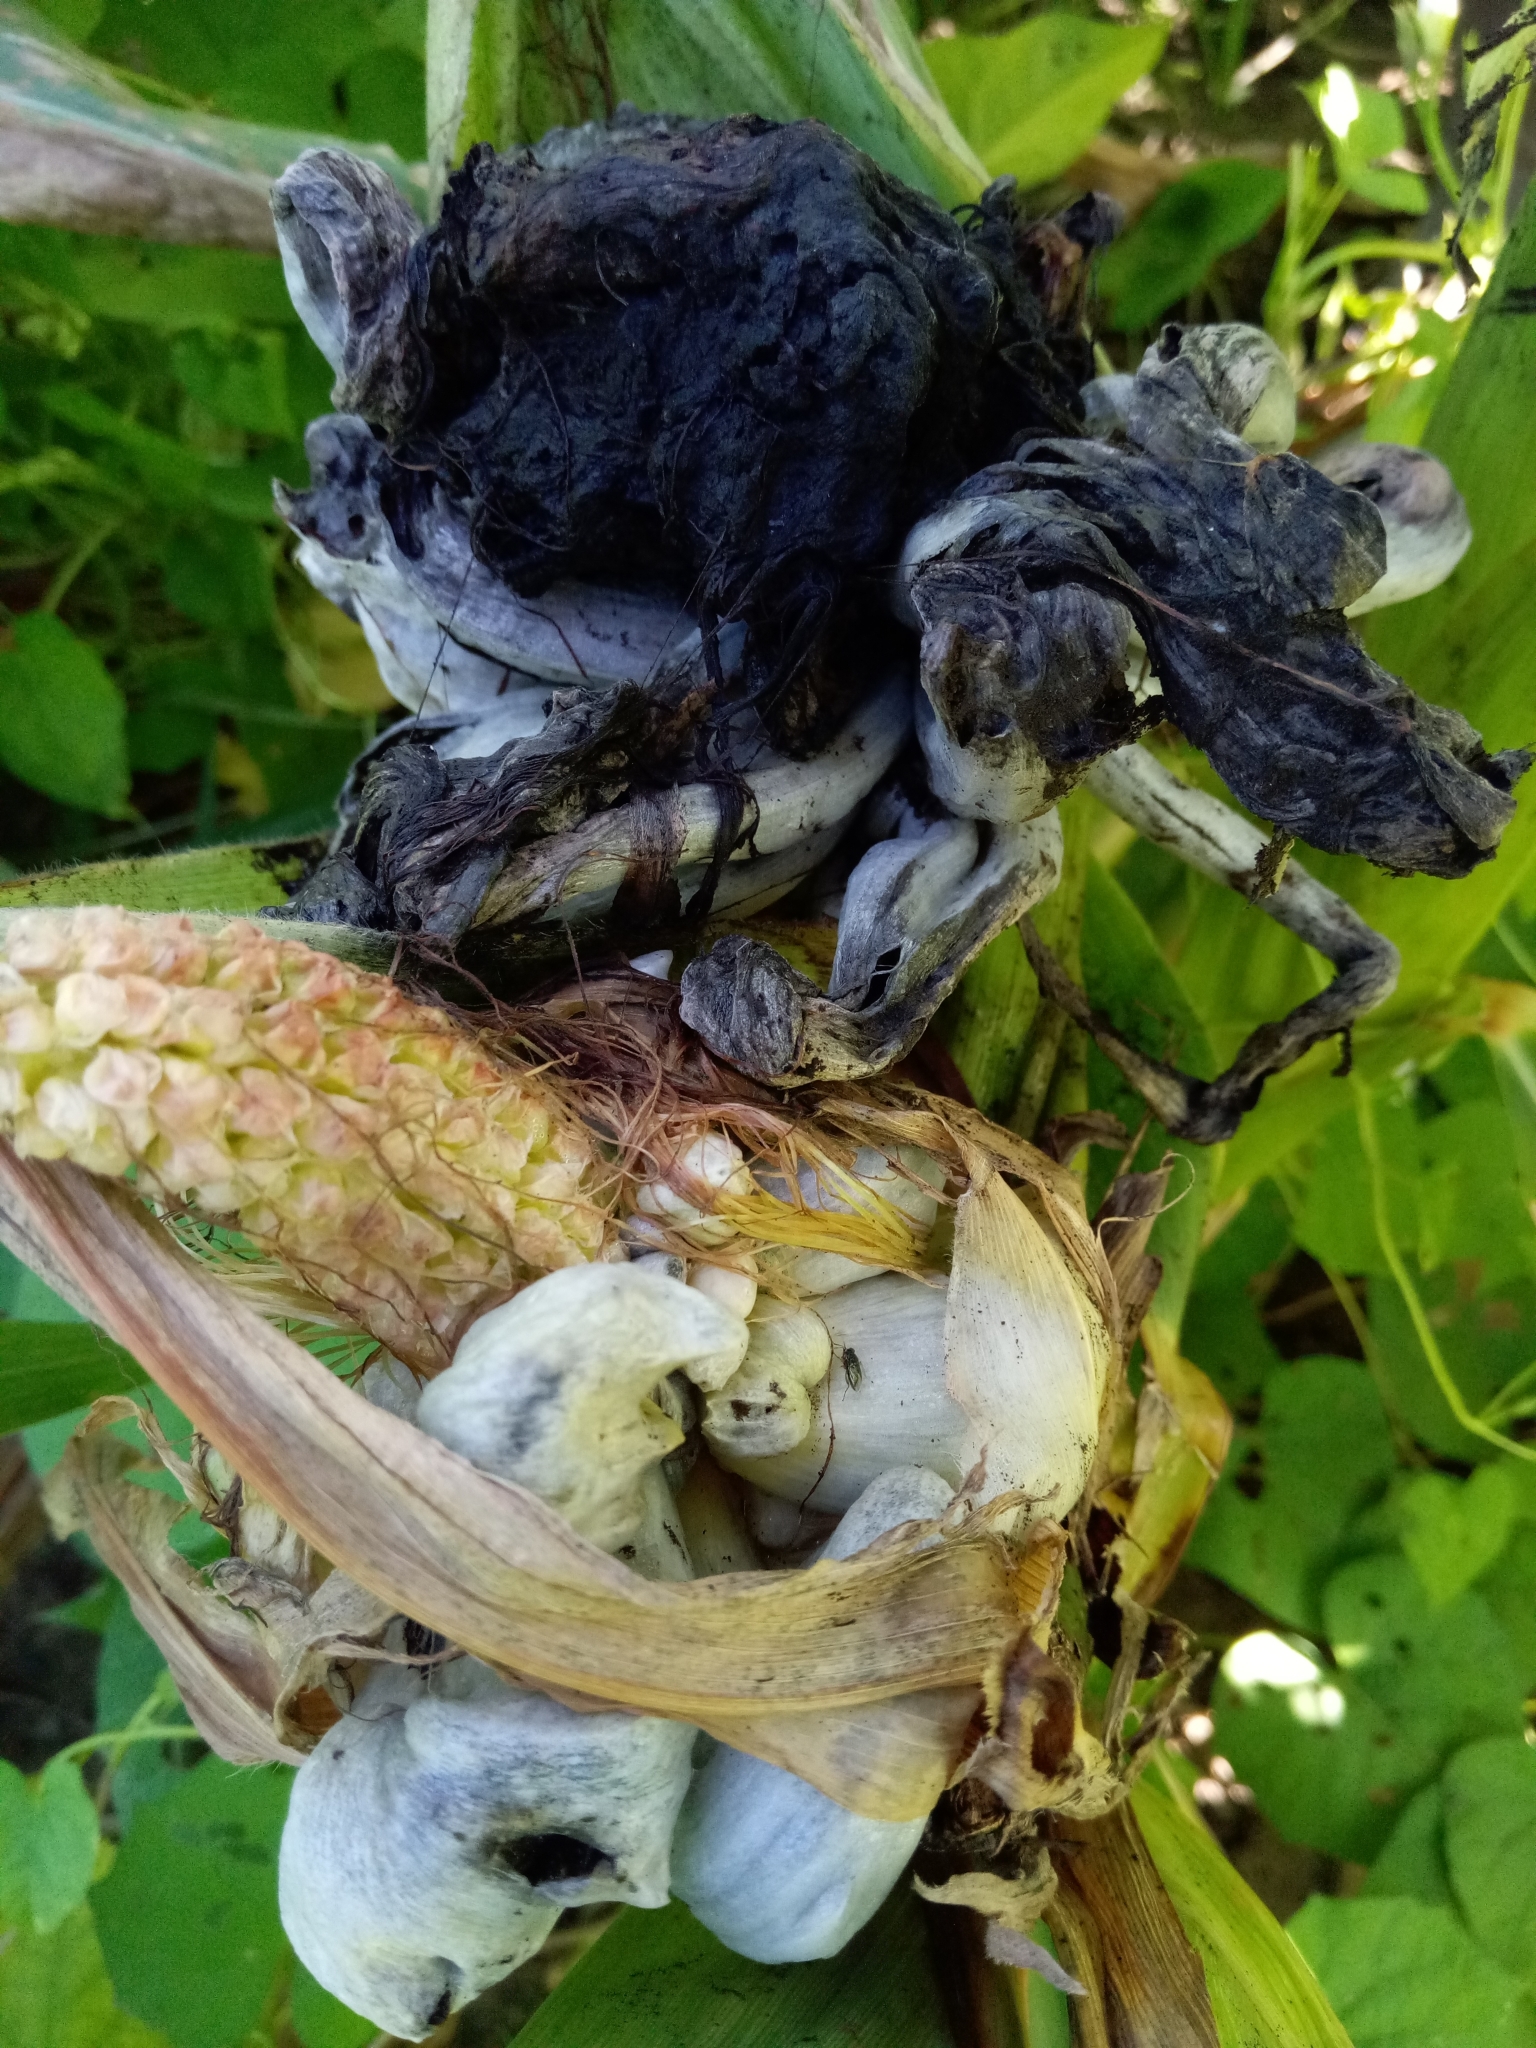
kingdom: Fungi
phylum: Basidiomycota
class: Ustilaginomycetes
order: Ustilaginales
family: Ustilaginaceae
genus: Mycosarcoma
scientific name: Mycosarcoma maydis
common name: Corn smut
